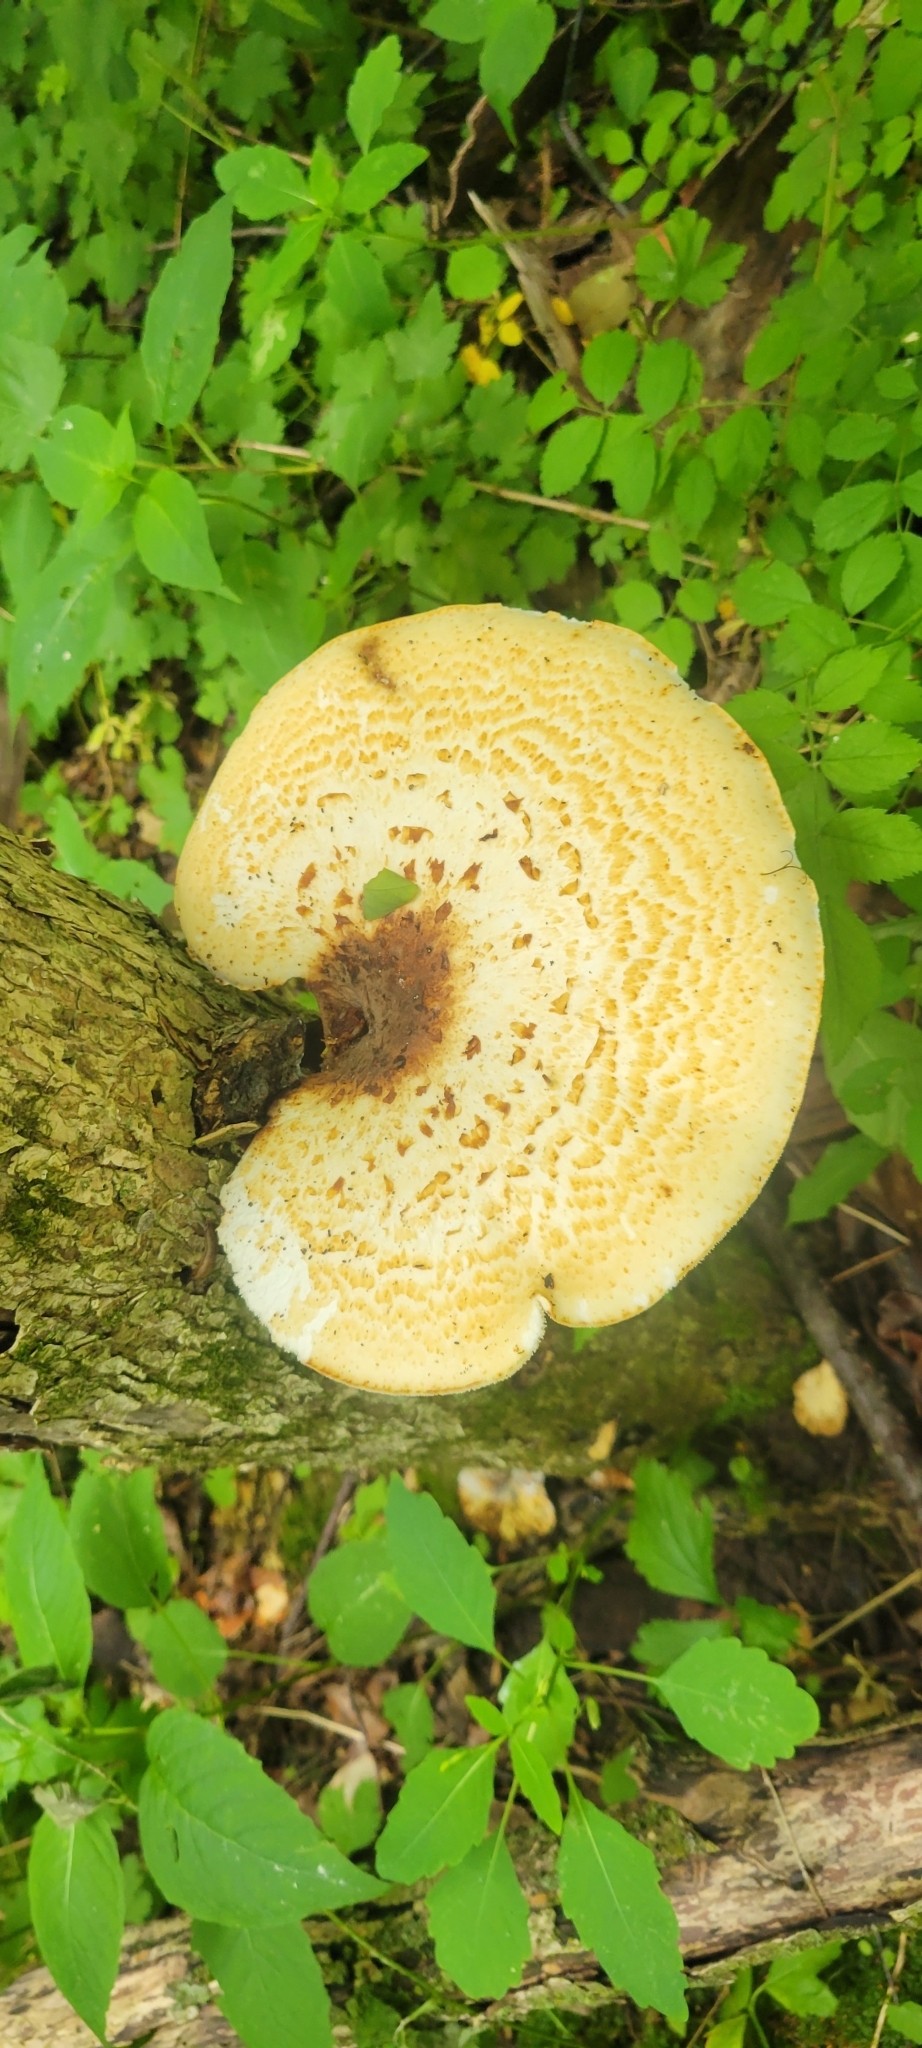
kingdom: Fungi
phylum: Basidiomycota
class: Agaricomycetes
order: Polyporales
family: Polyporaceae
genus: Cerioporus
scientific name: Cerioporus squamosus
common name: Dryad's saddle
